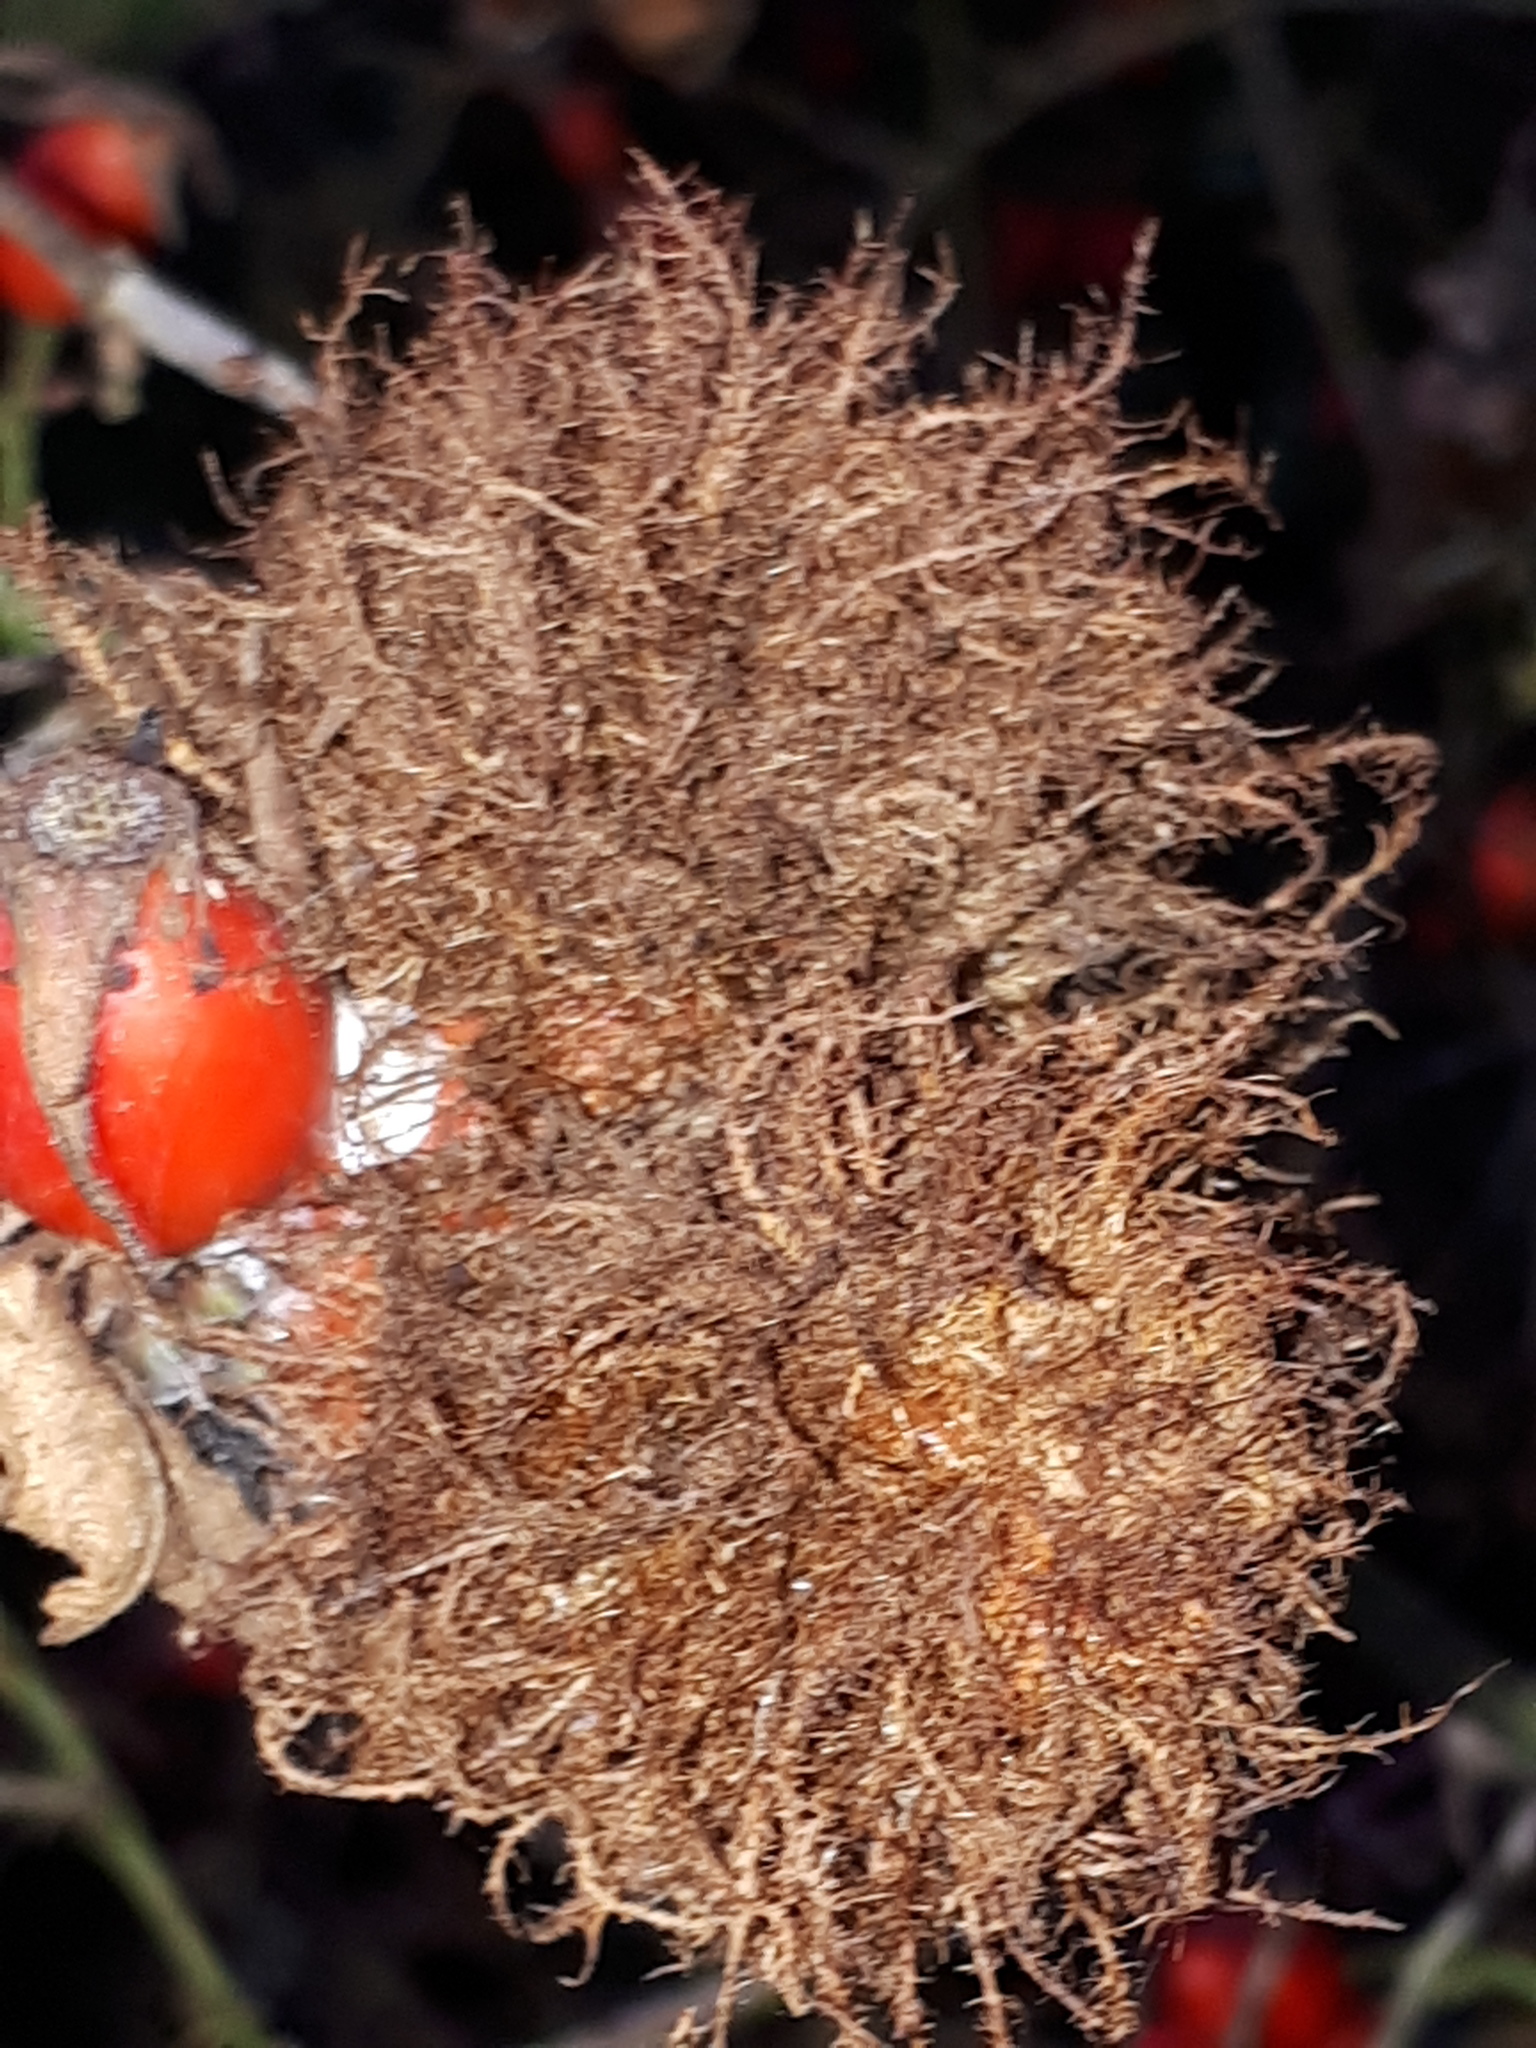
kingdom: Animalia
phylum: Arthropoda
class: Insecta
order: Hymenoptera
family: Cynipidae
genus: Diplolepis
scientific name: Diplolepis rosae
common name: Bedeguar gall
